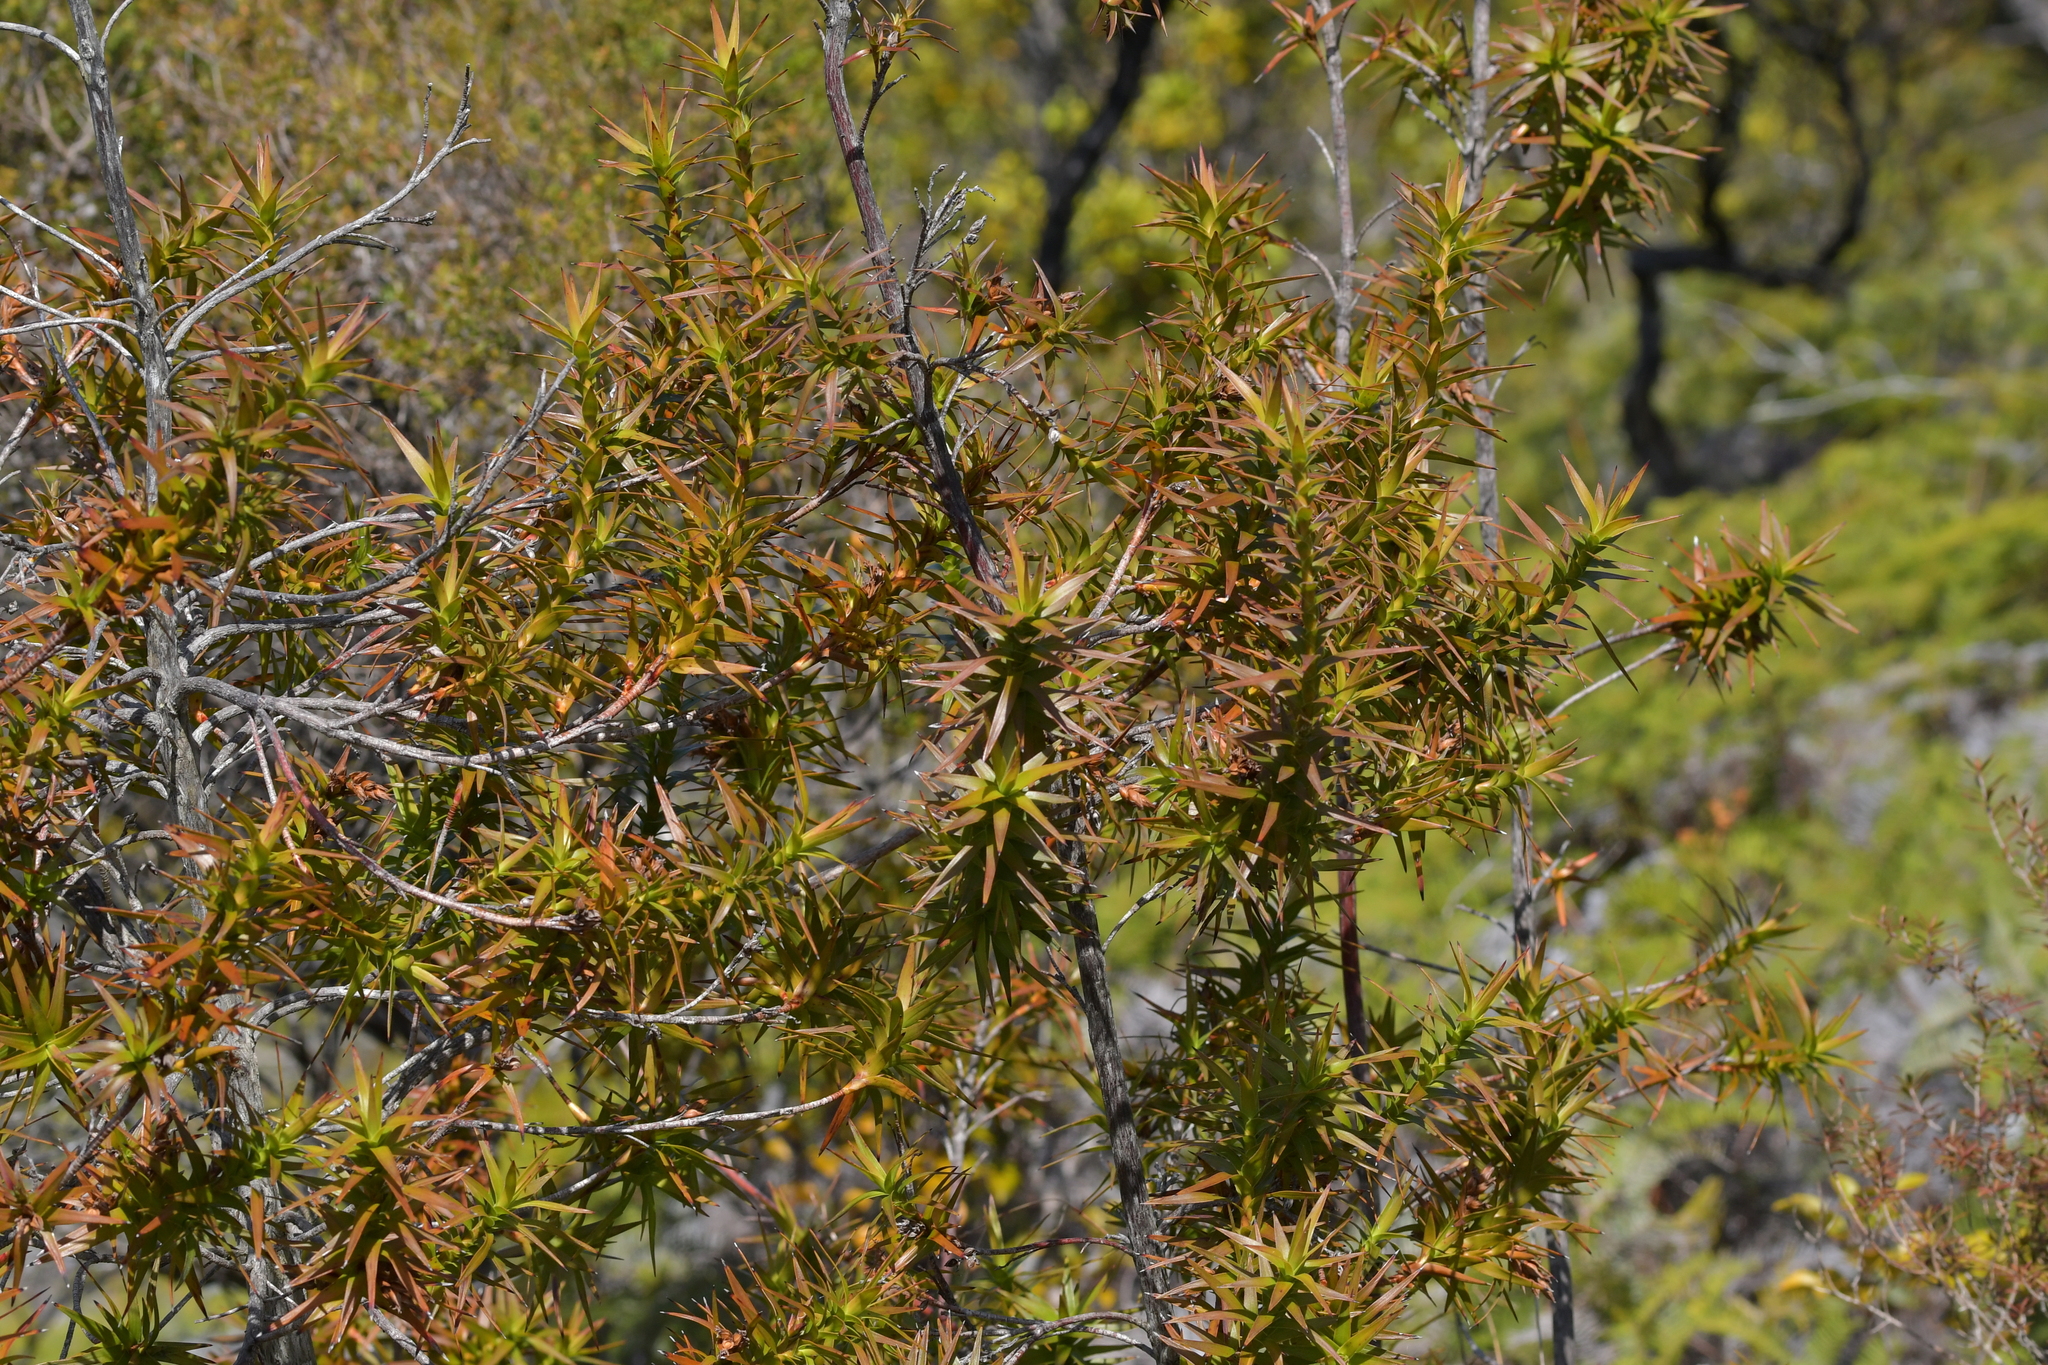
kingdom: Plantae
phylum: Tracheophyta
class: Magnoliopsida
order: Ericales
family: Ericaceae
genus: Dracophyllum
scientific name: Dracophyllum sinclairii
